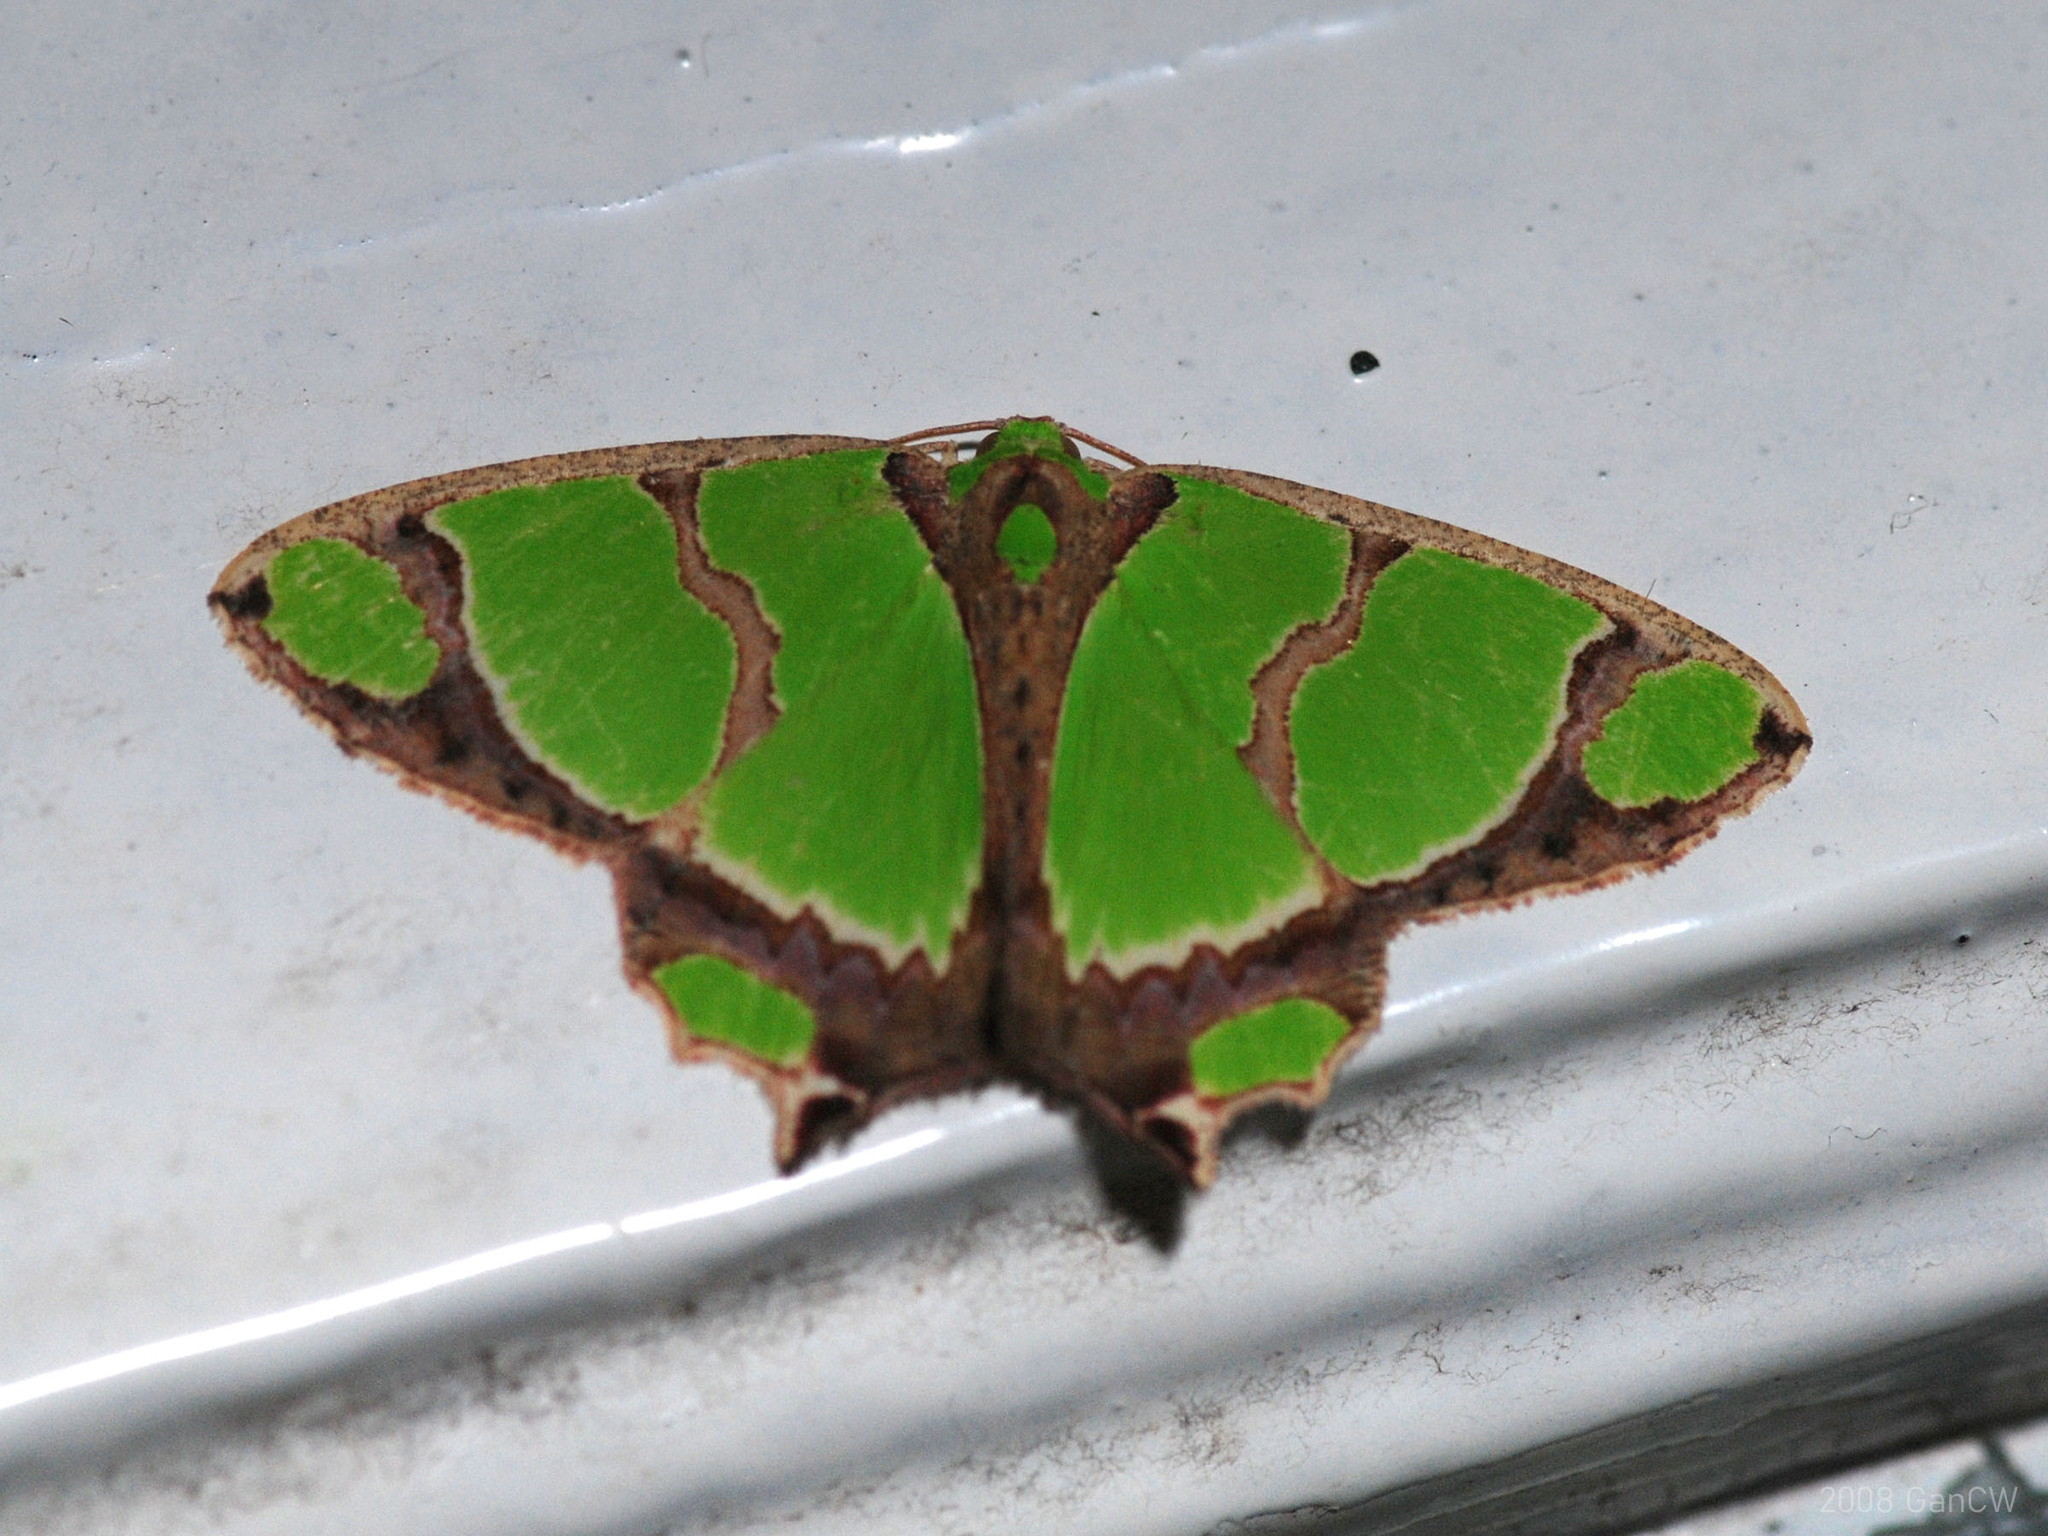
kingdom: Animalia
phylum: Arthropoda
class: Insecta
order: Lepidoptera
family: Geometridae
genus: Agathia
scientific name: Agathia quinaria
